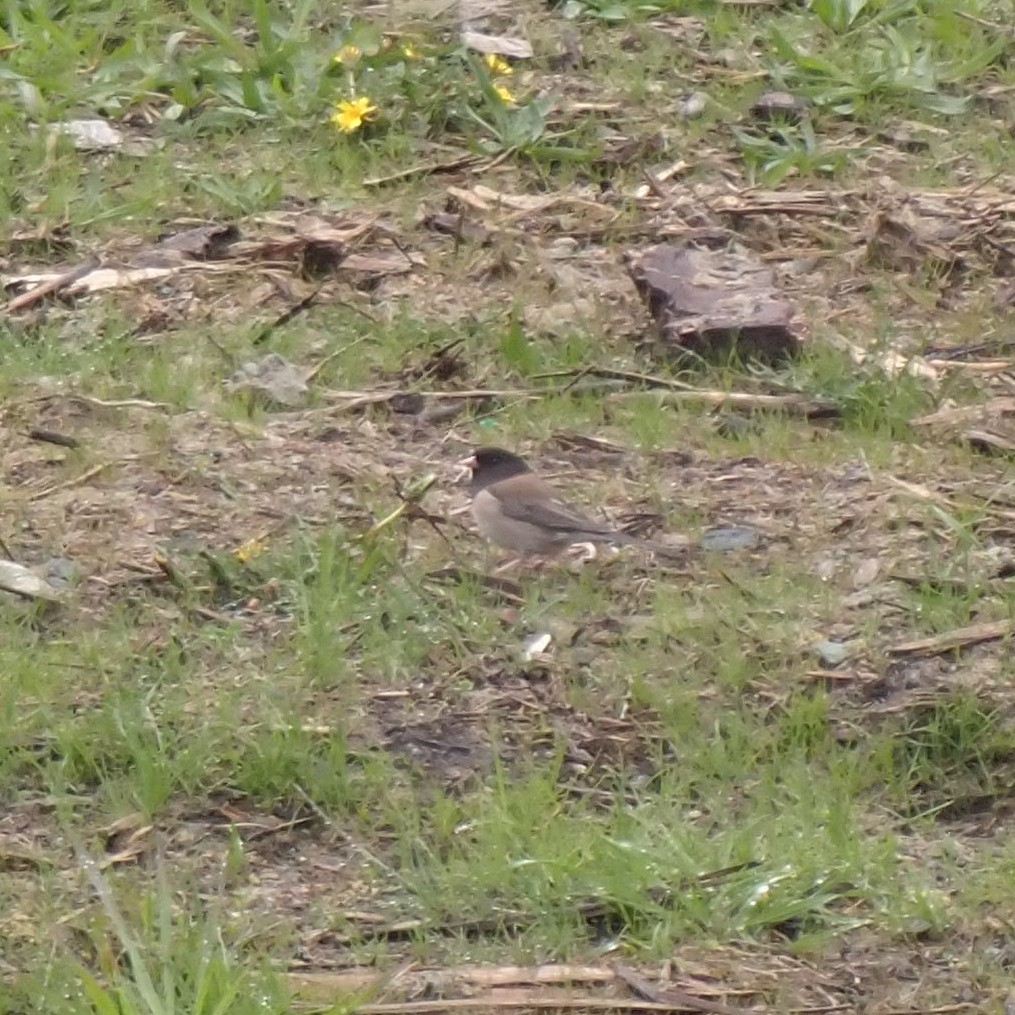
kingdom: Animalia
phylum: Chordata
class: Aves
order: Passeriformes
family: Passerellidae
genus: Junco
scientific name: Junco hyemalis
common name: Dark-eyed junco
